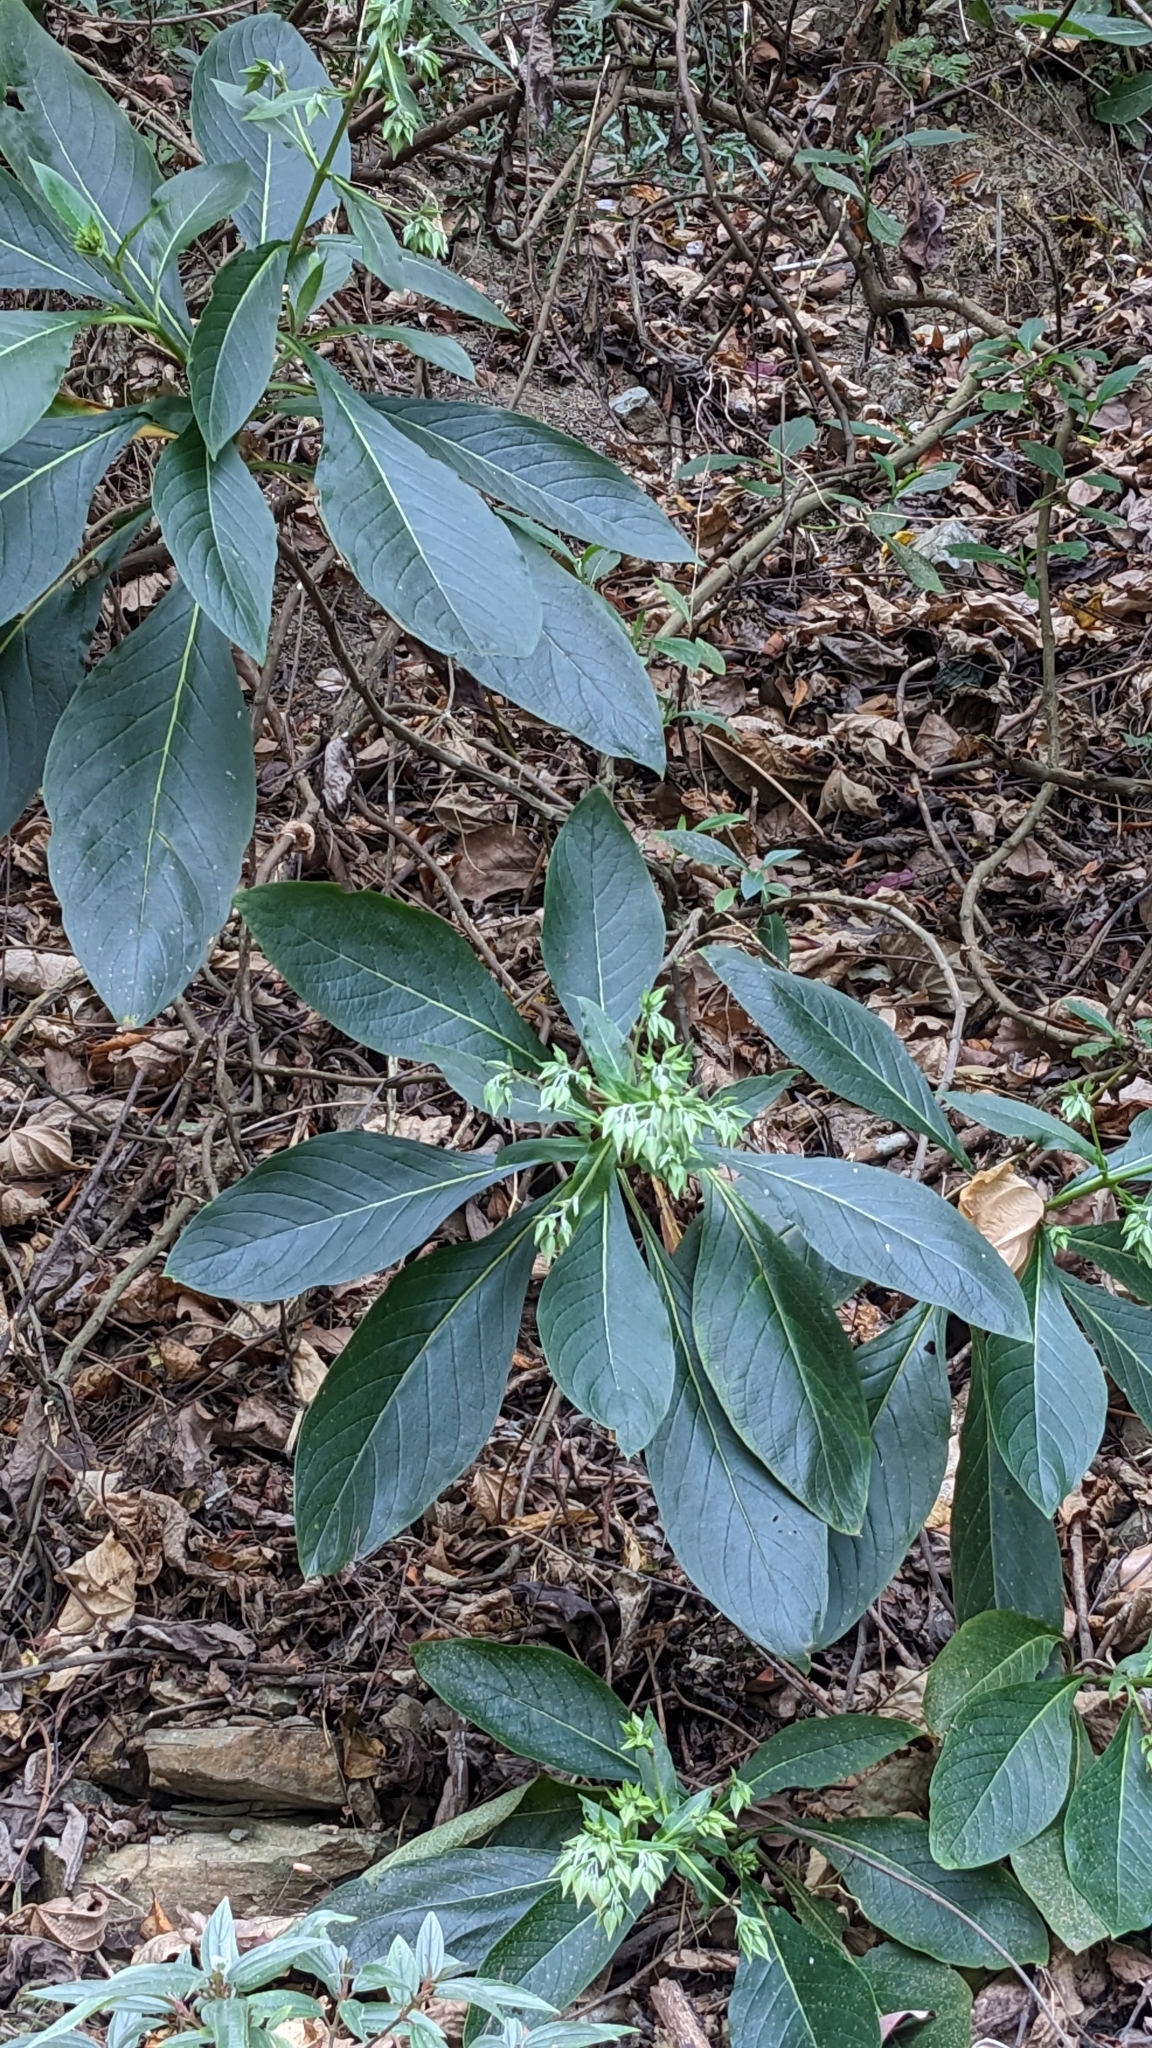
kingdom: Plantae
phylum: Tracheophyta
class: Magnoliopsida
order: Boraginales
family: Boraginaceae
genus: Trichodesma
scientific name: Trichodesma calycosum
